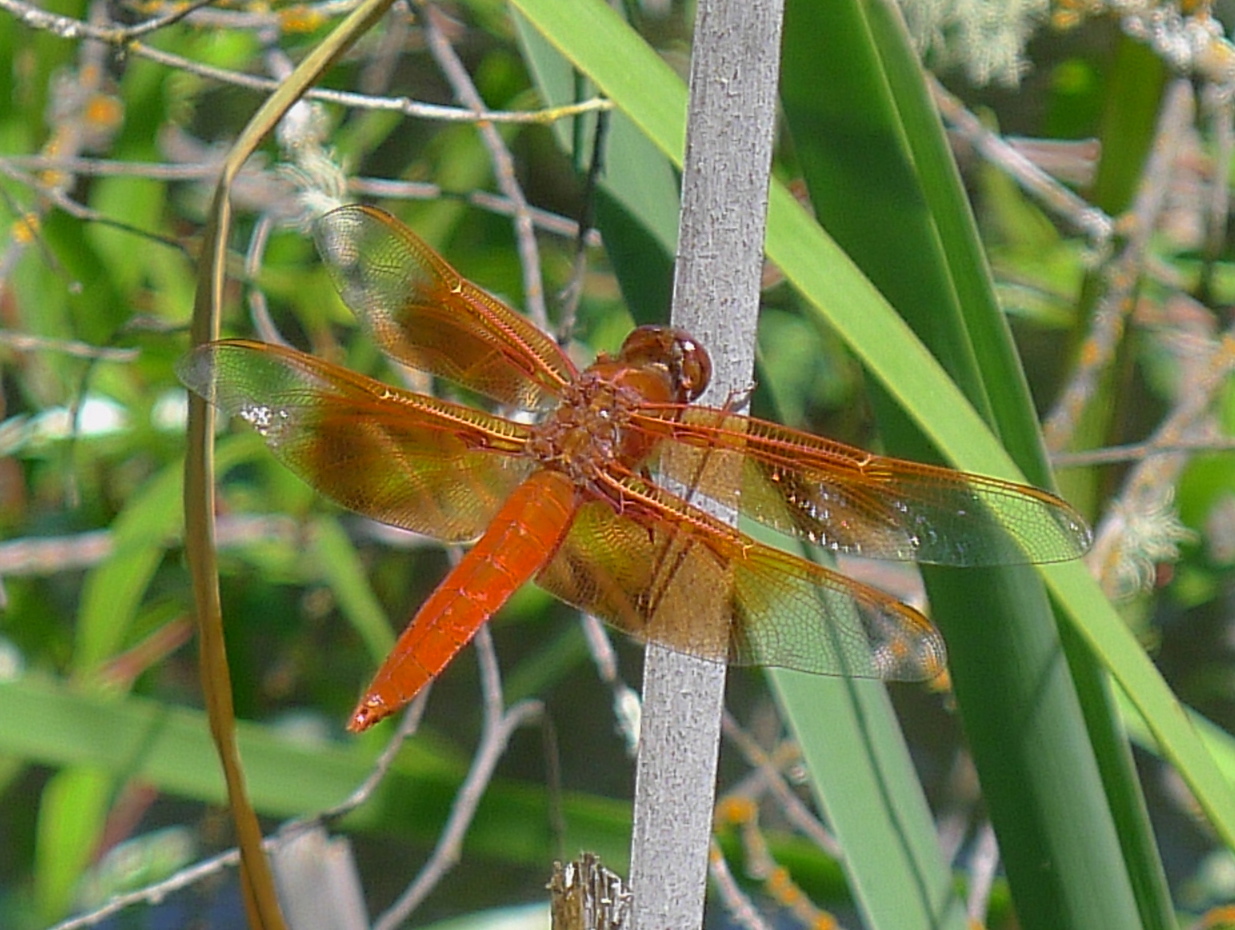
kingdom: Animalia
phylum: Arthropoda
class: Insecta
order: Odonata
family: Libellulidae
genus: Libellula
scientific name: Libellula saturata
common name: Flame skimmer
